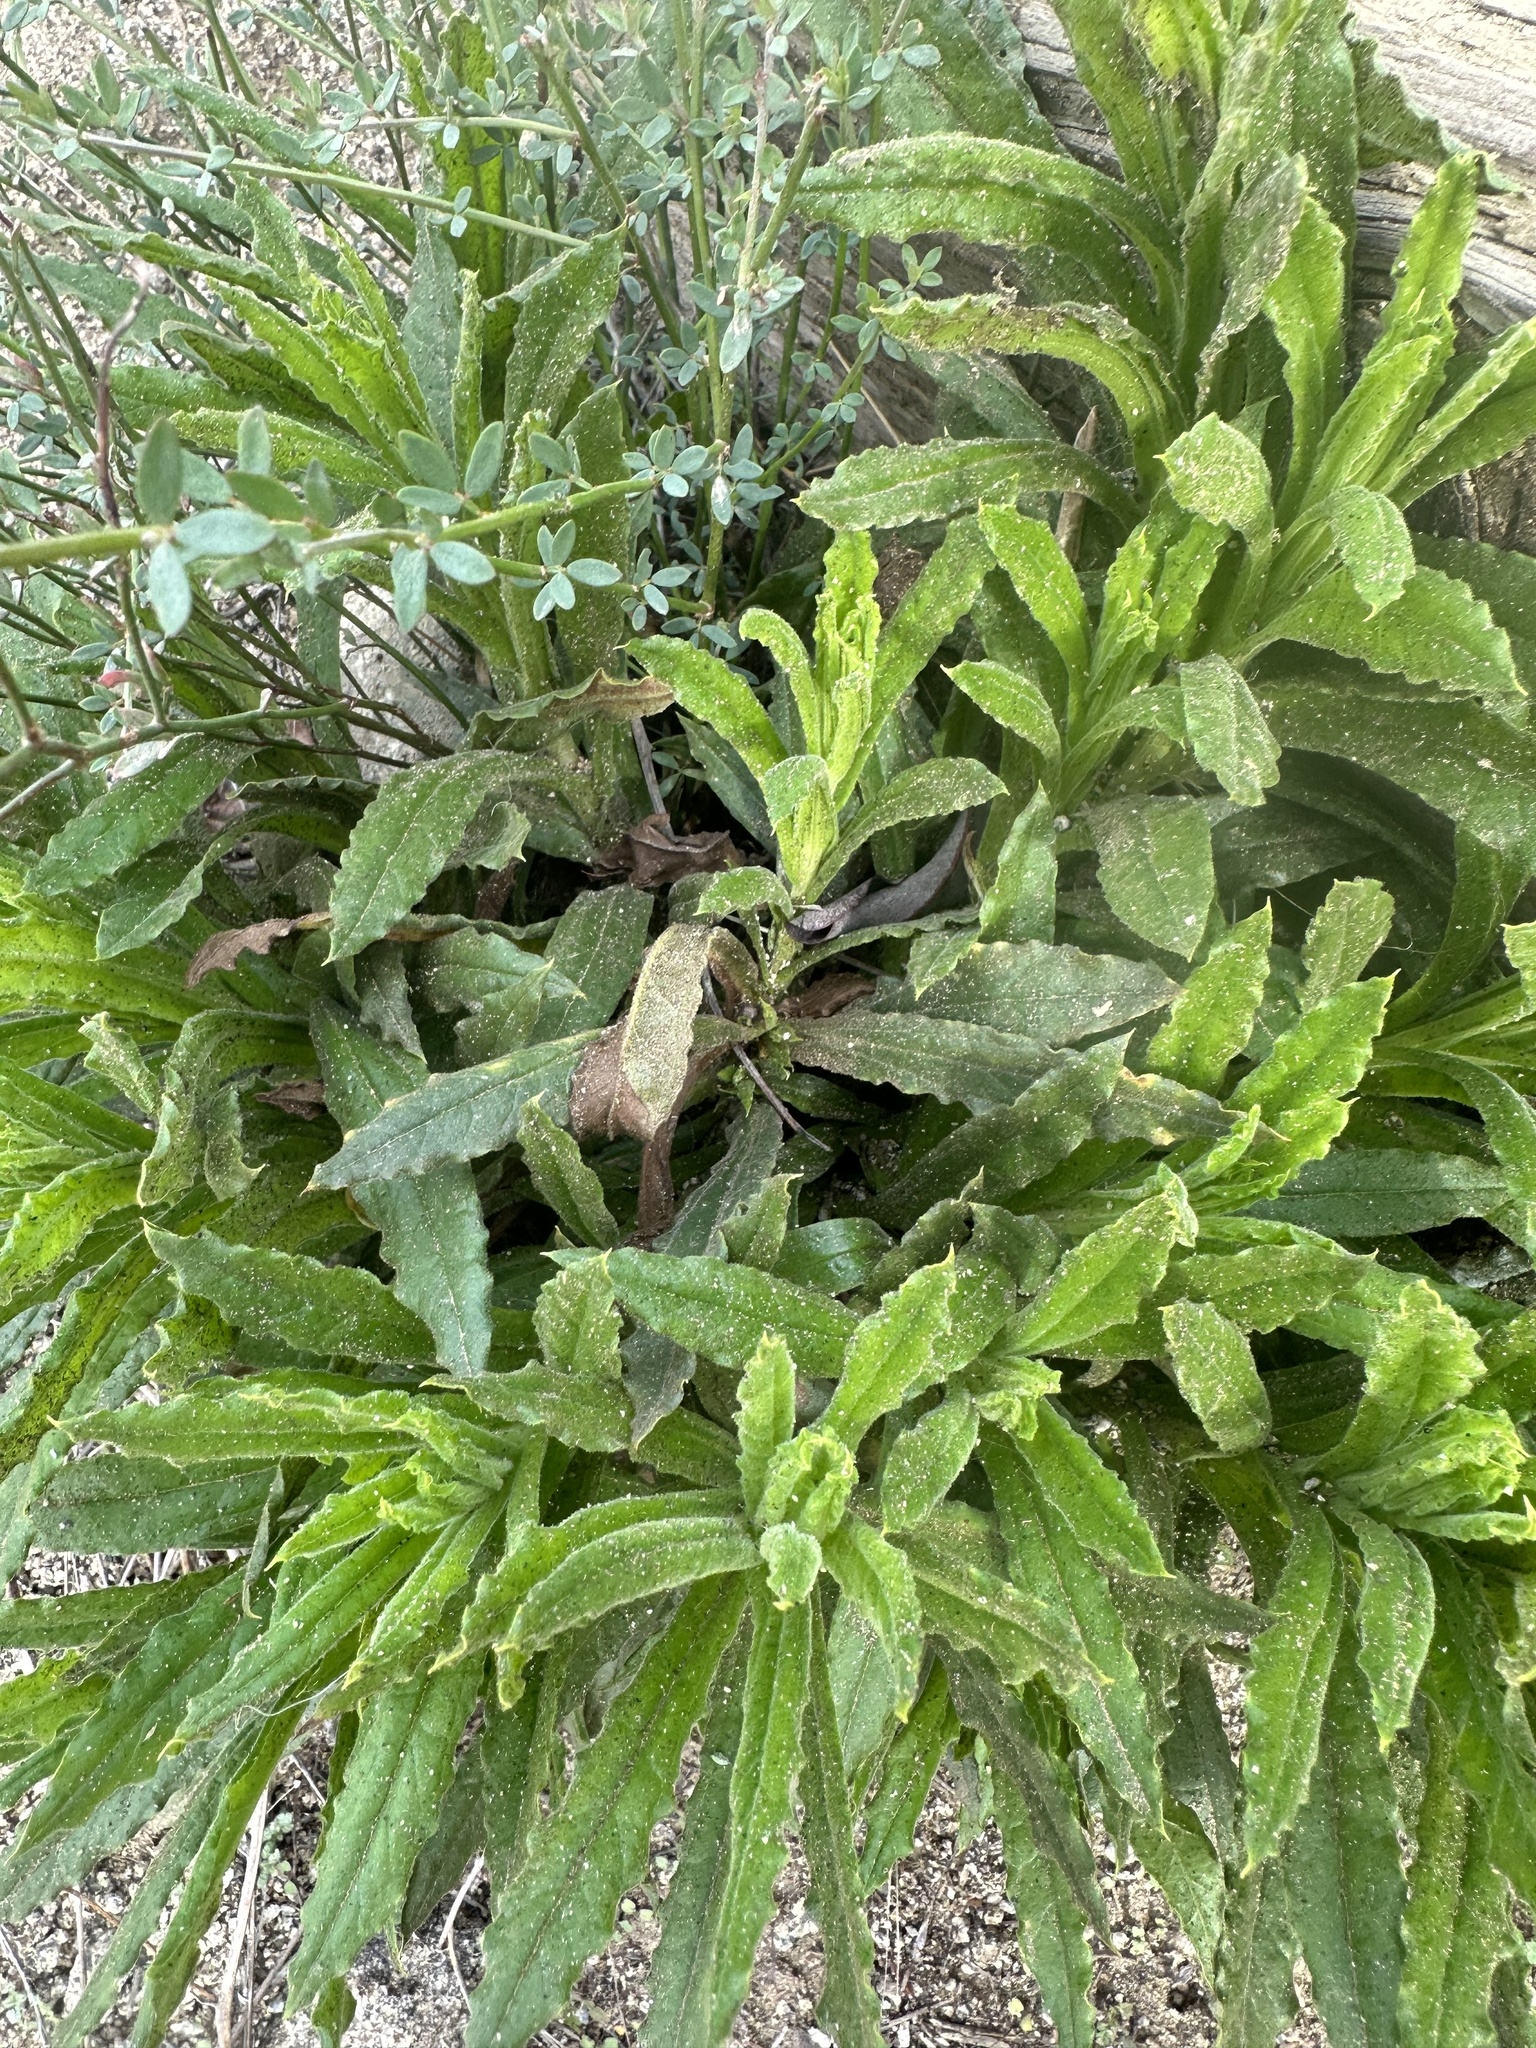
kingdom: Plantae
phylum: Tracheophyta
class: Magnoliopsida
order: Asterales
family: Asteraceae
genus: Pseudognaphalium
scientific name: Pseudognaphalium californicum
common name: California rabbit-tobacco
